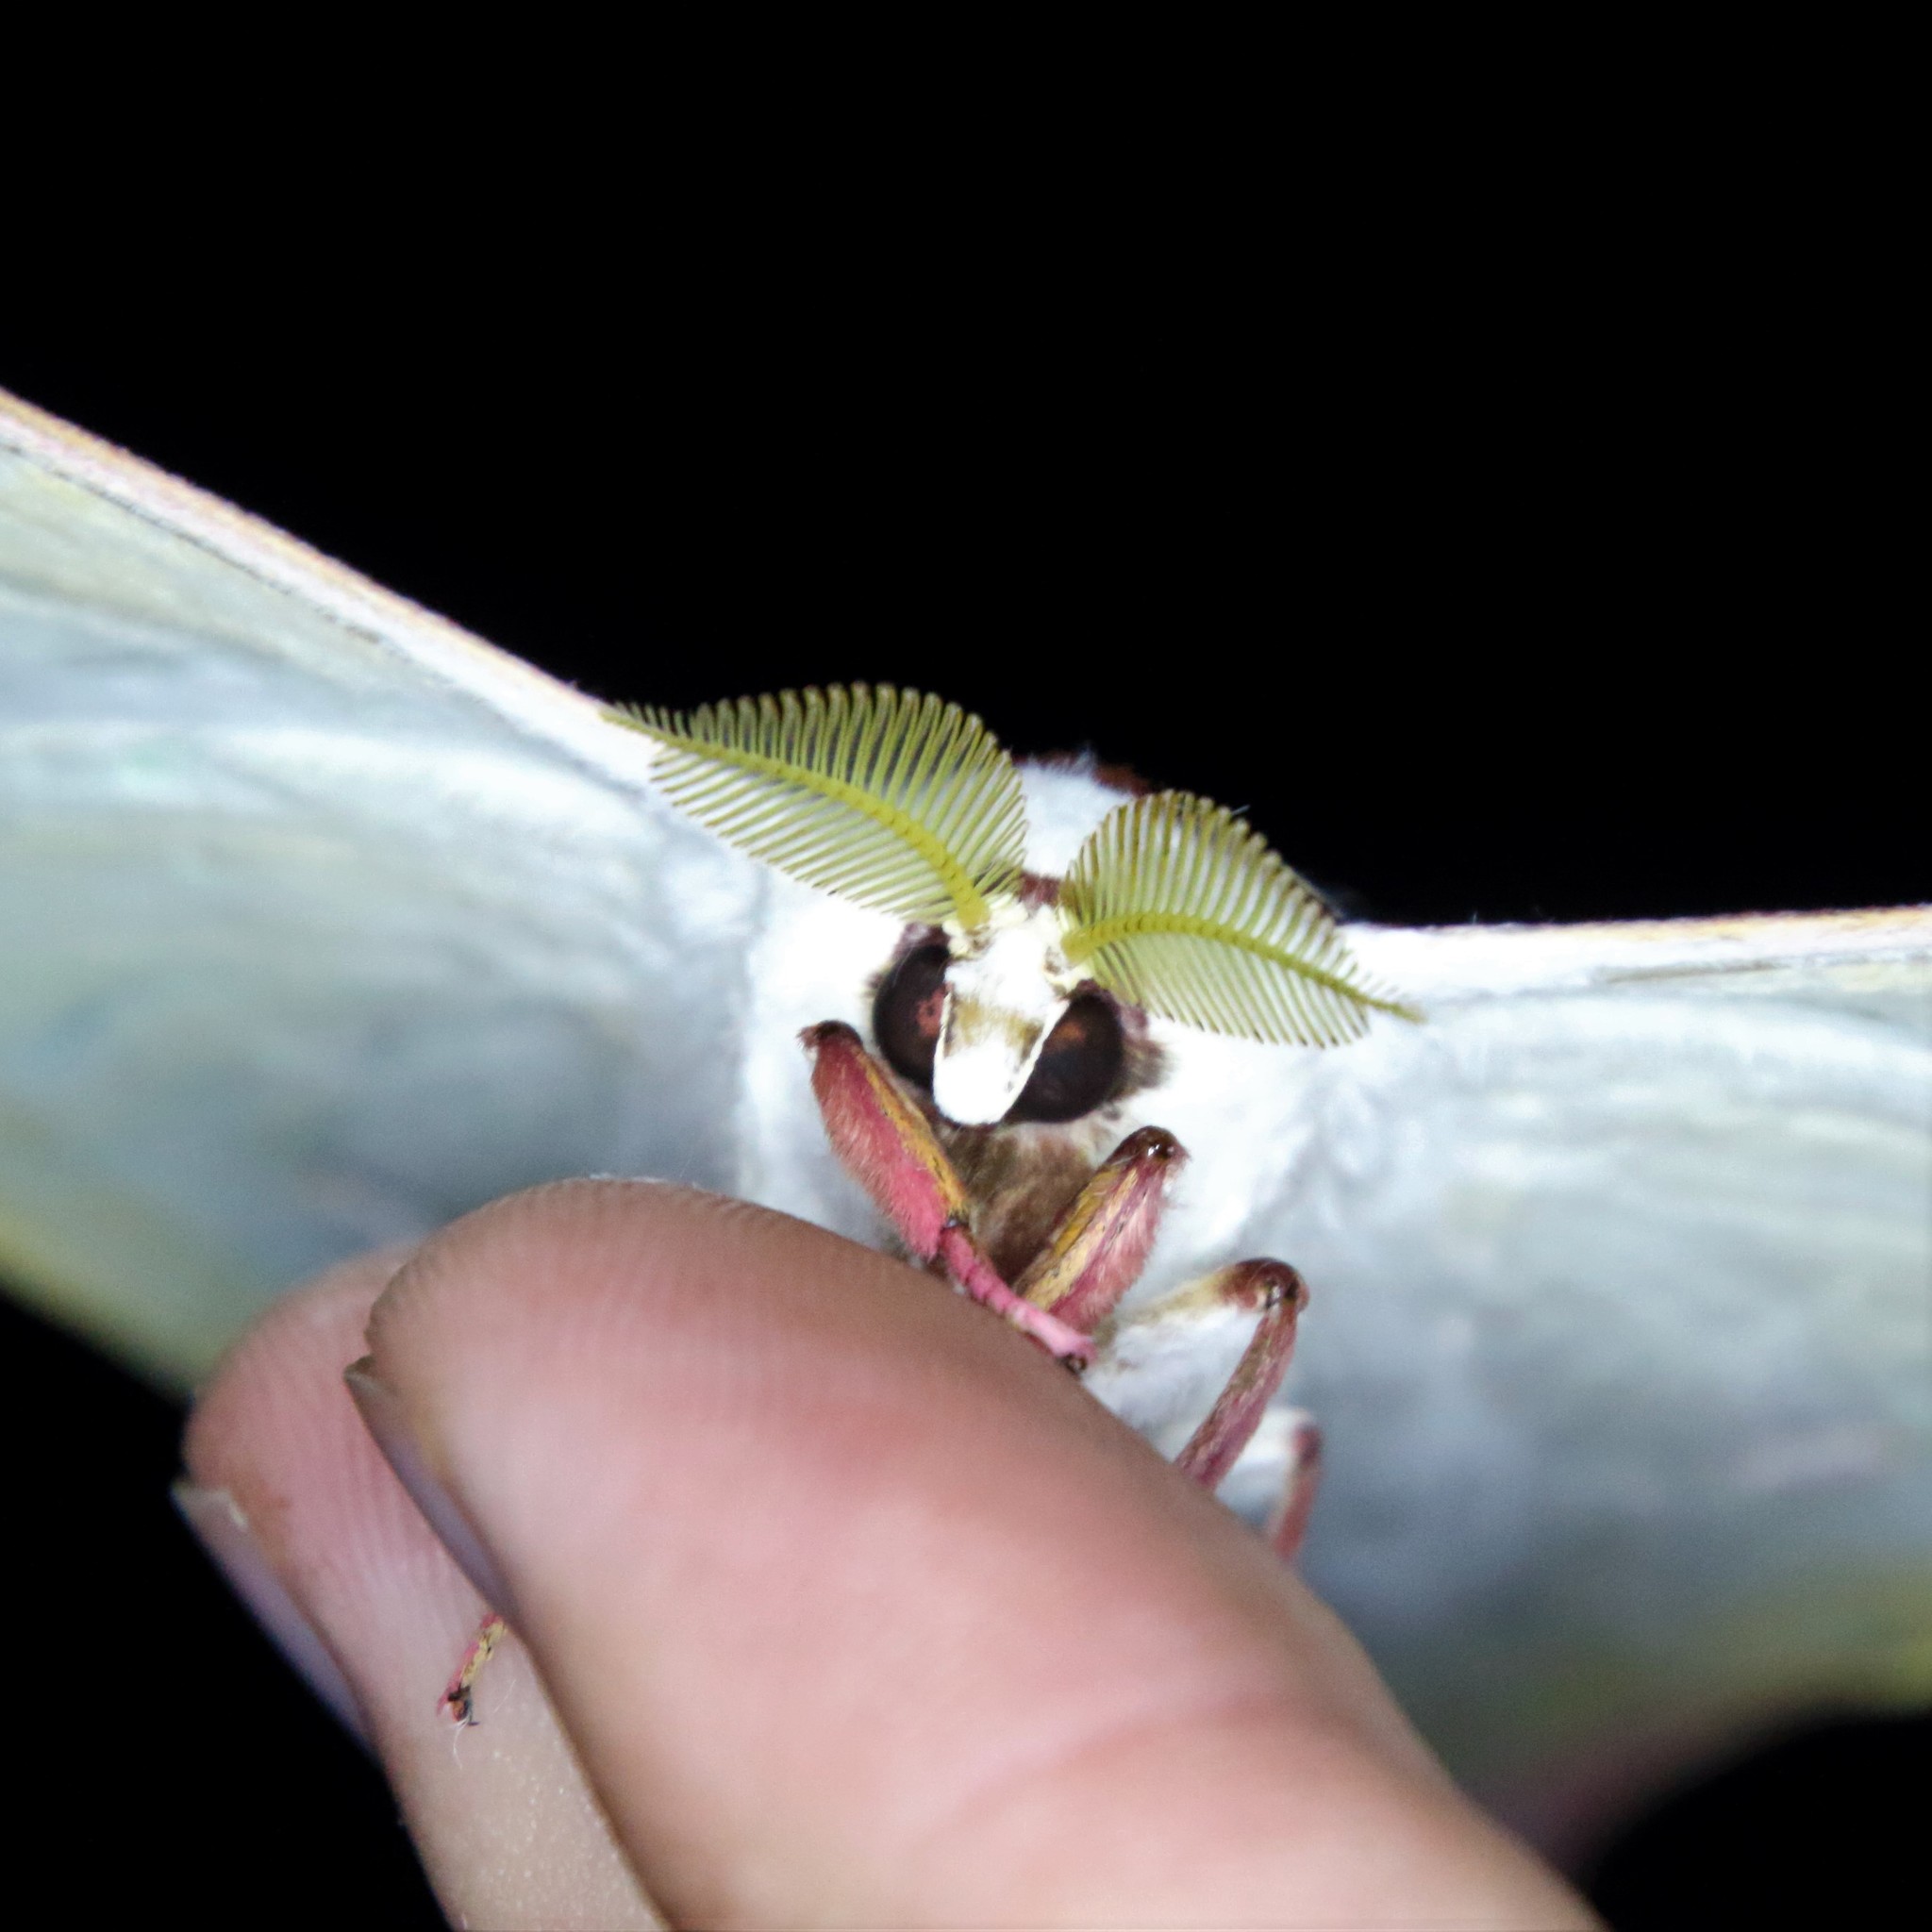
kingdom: Animalia
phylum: Arthropoda
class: Insecta
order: Lepidoptera
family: Saturniidae
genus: Actias
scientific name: Actias selene
